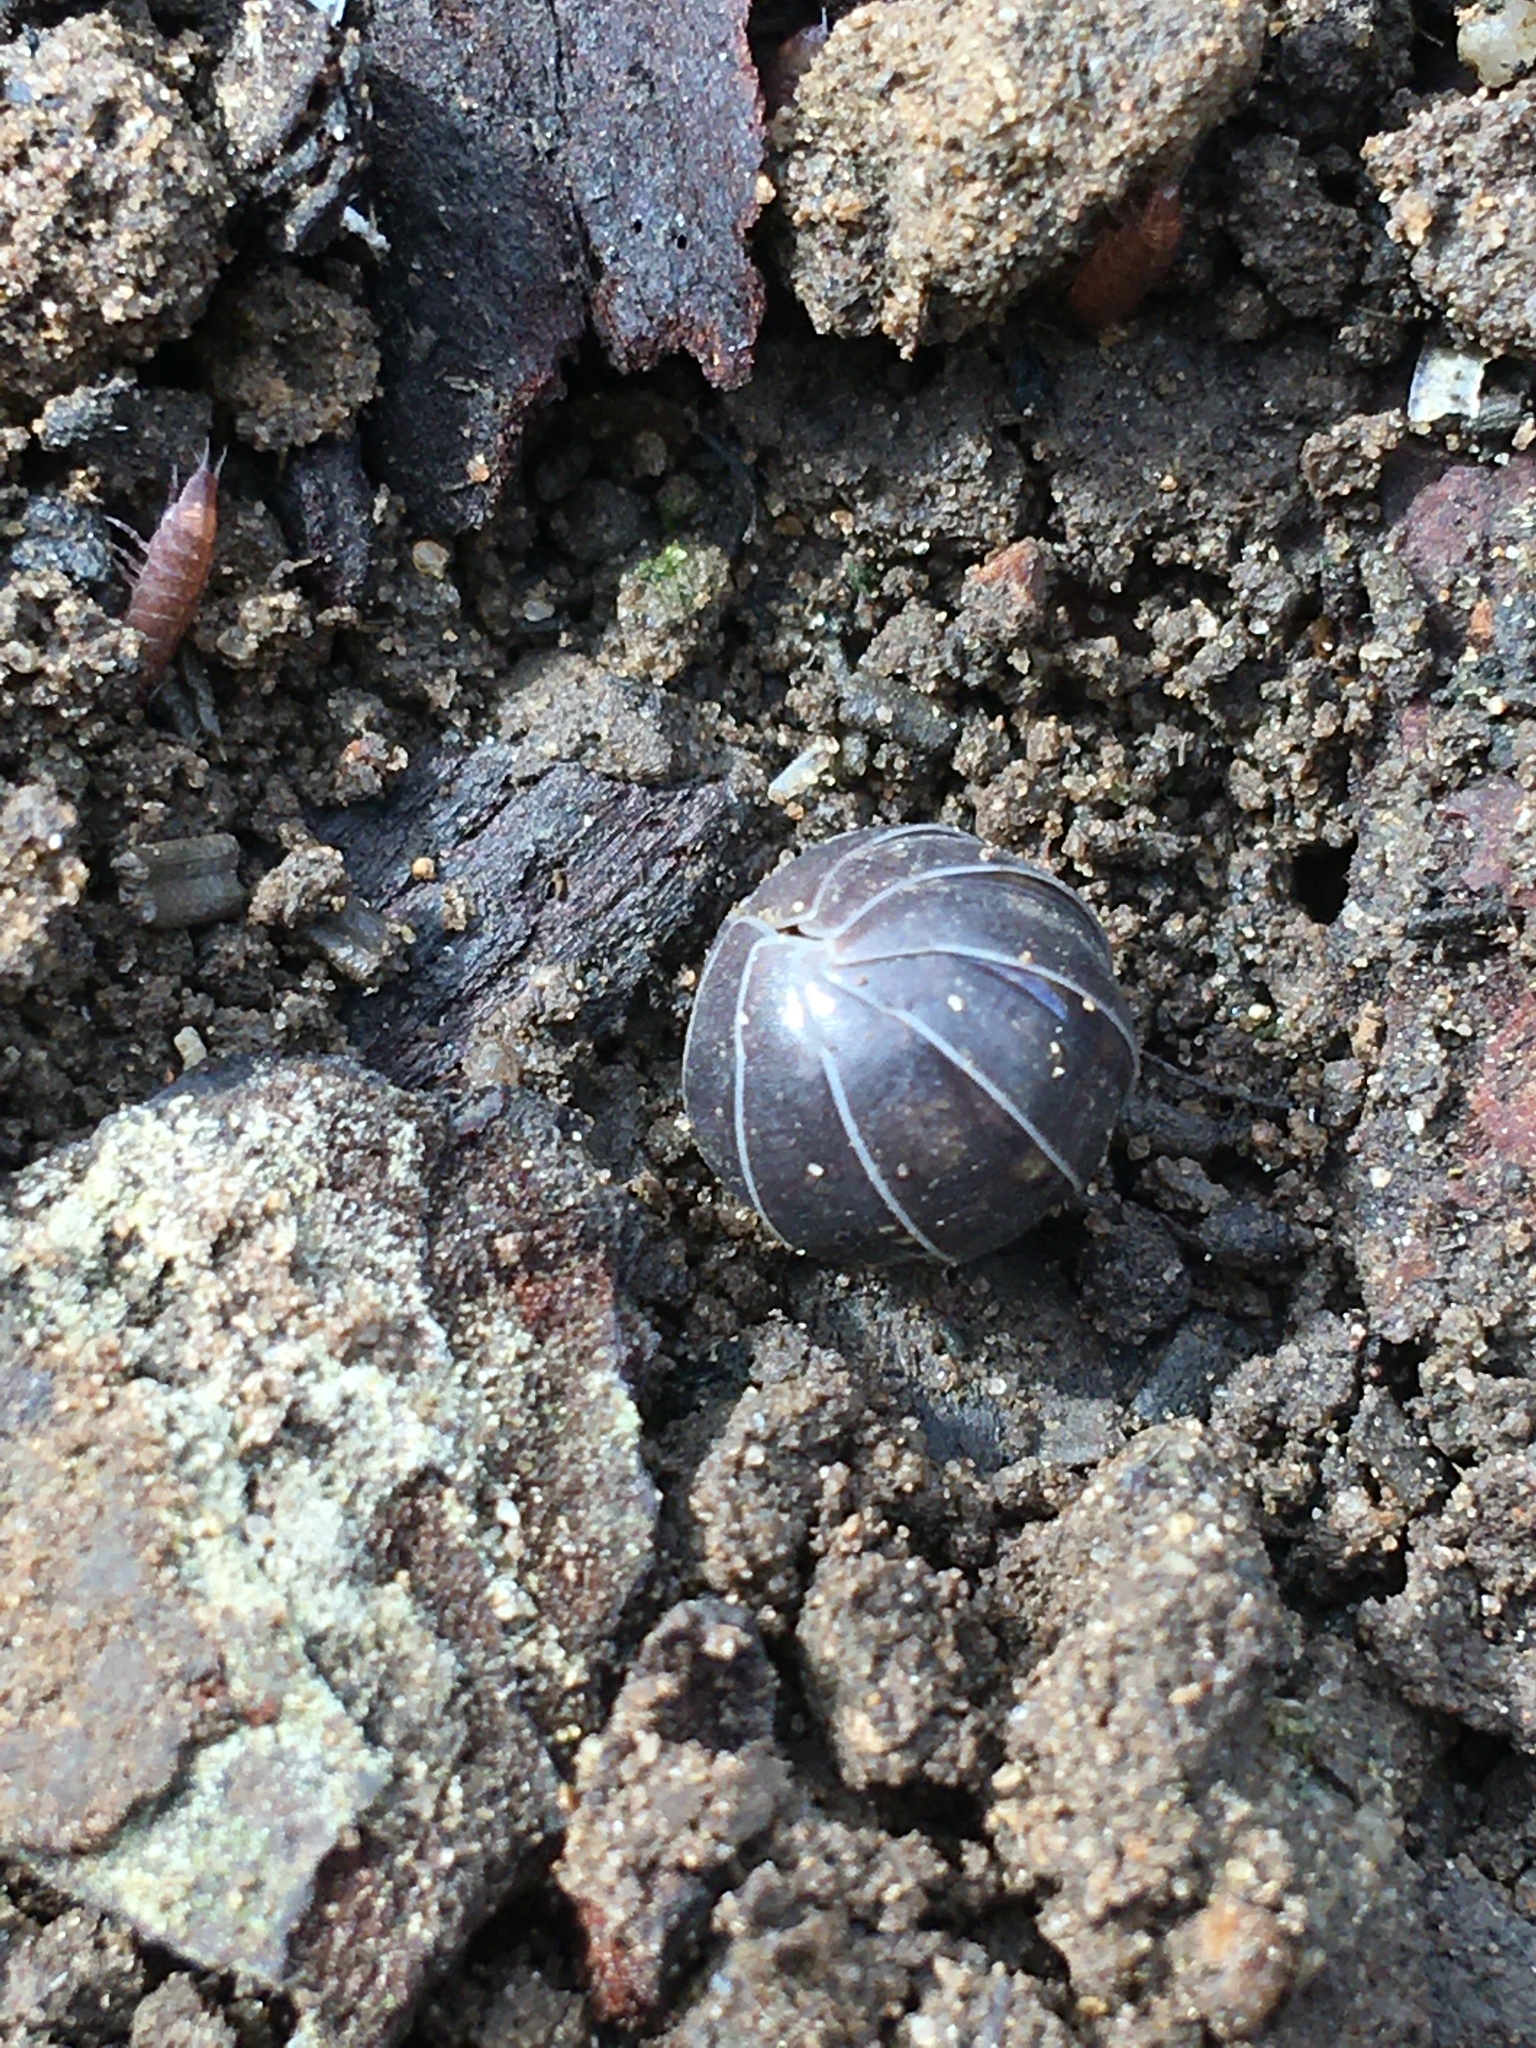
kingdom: Animalia
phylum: Arthropoda
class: Malacostraca
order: Isopoda
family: Armadillidiidae
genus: Armadillidium
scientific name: Armadillidium vulgare
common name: Common pill woodlouse
